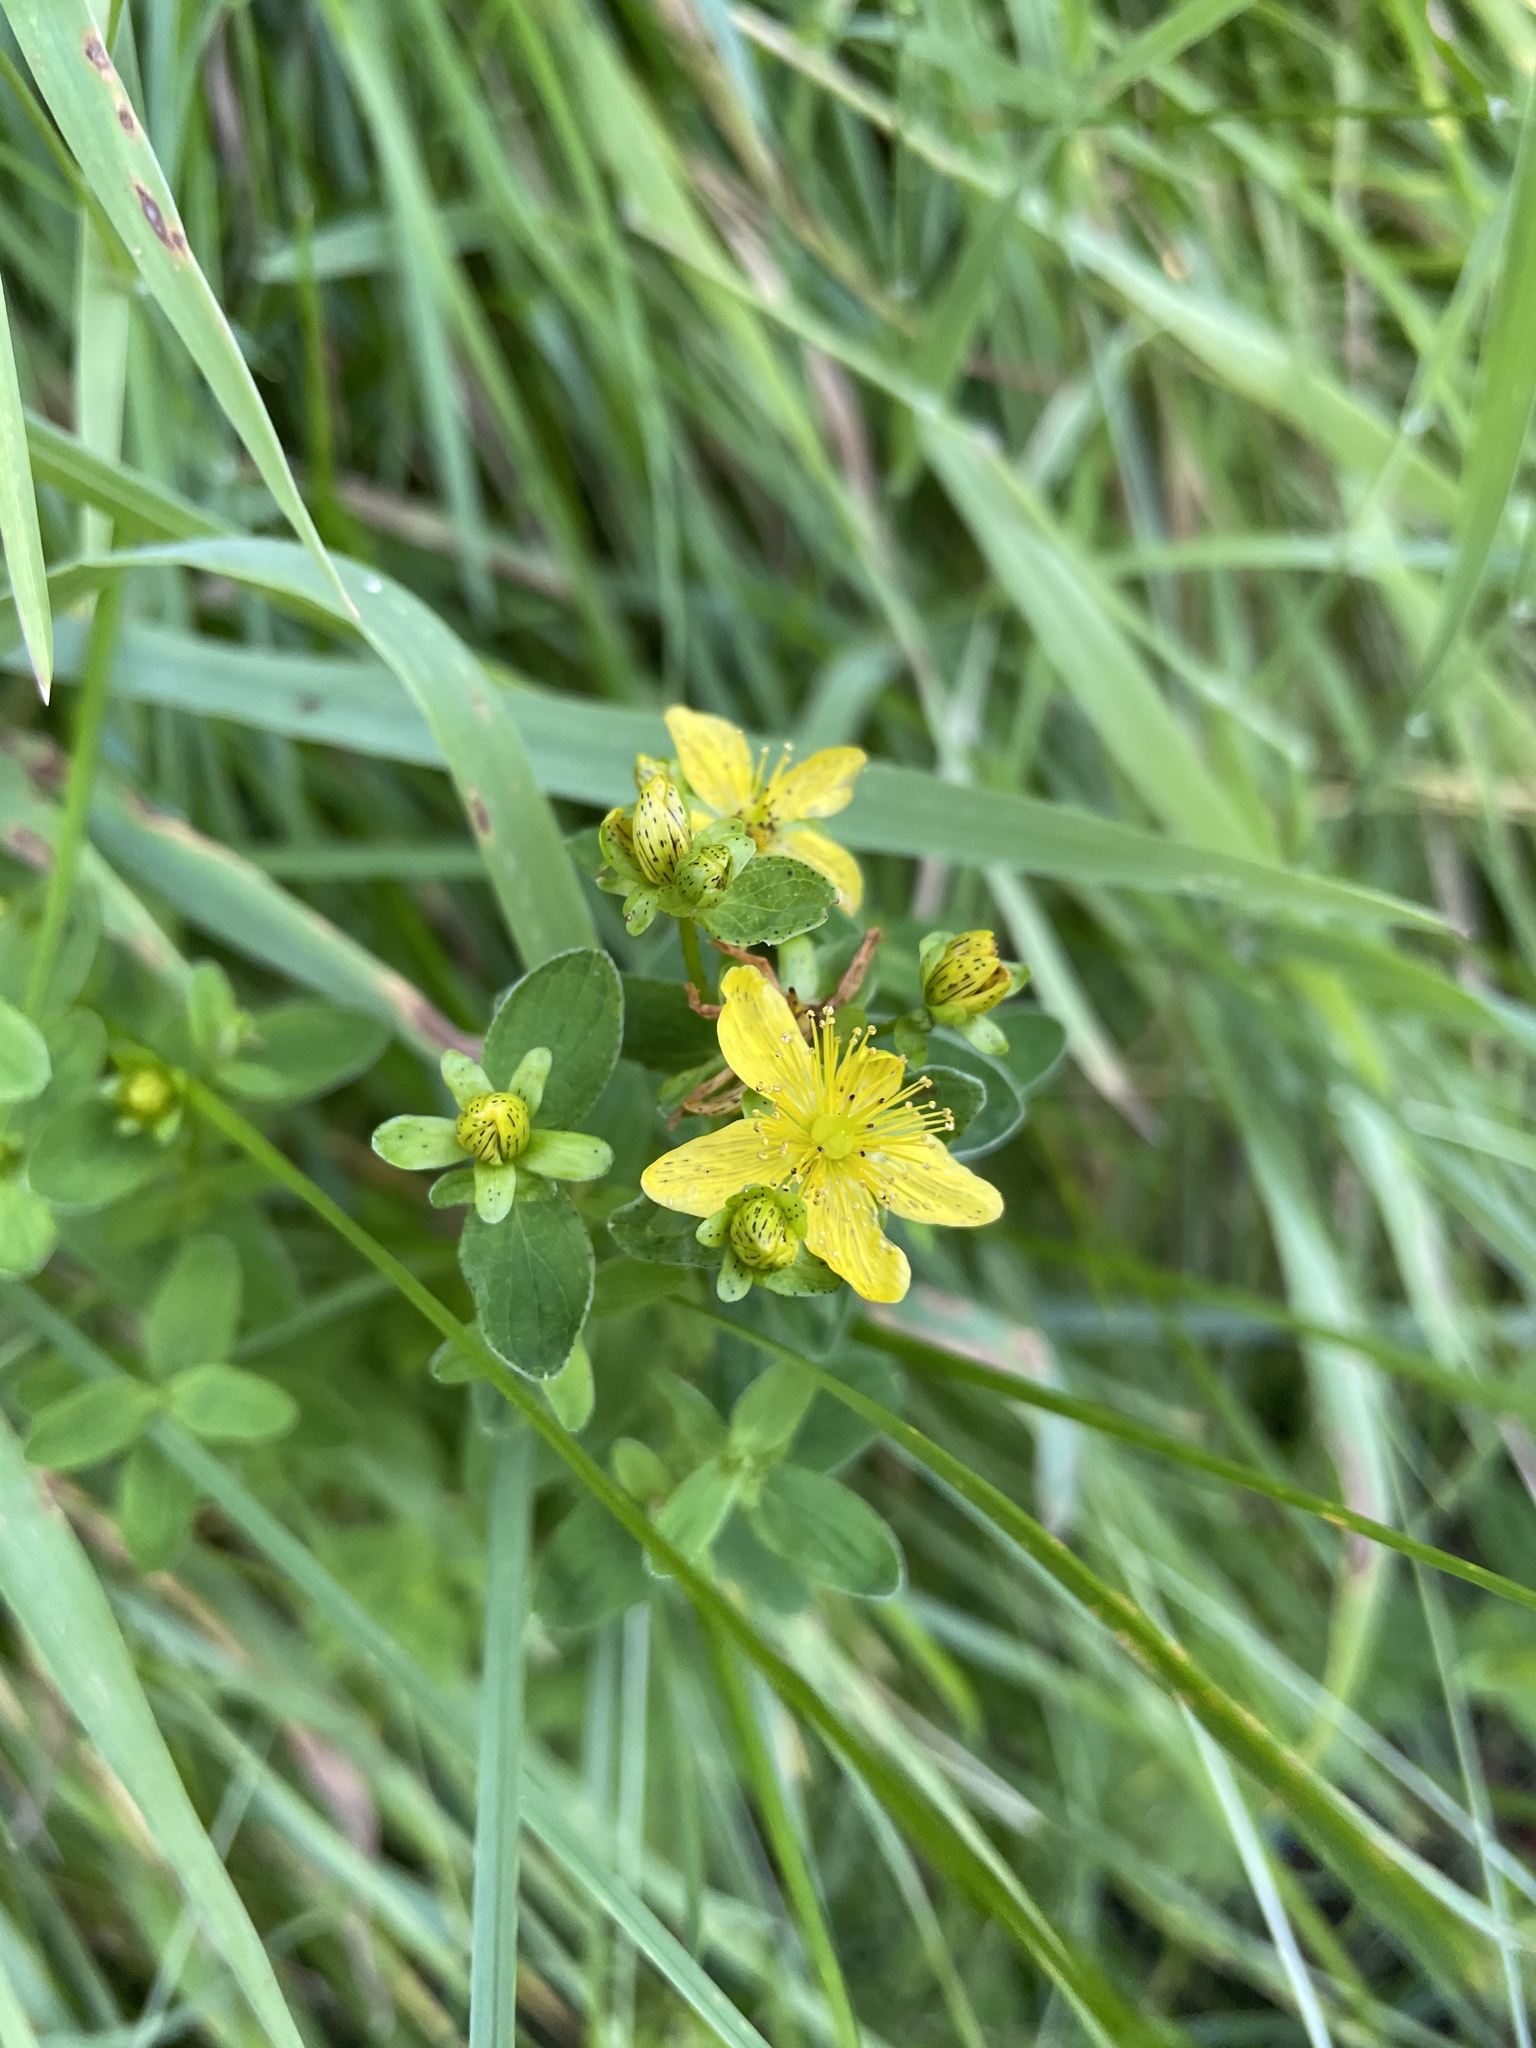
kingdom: Plantae
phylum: Tracheophyta
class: Magnoliopsida
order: Malpighiales
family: Hypericaceae
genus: Hypericum
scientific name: Hypericum maculatum
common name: Imperforate st. john's-wort
